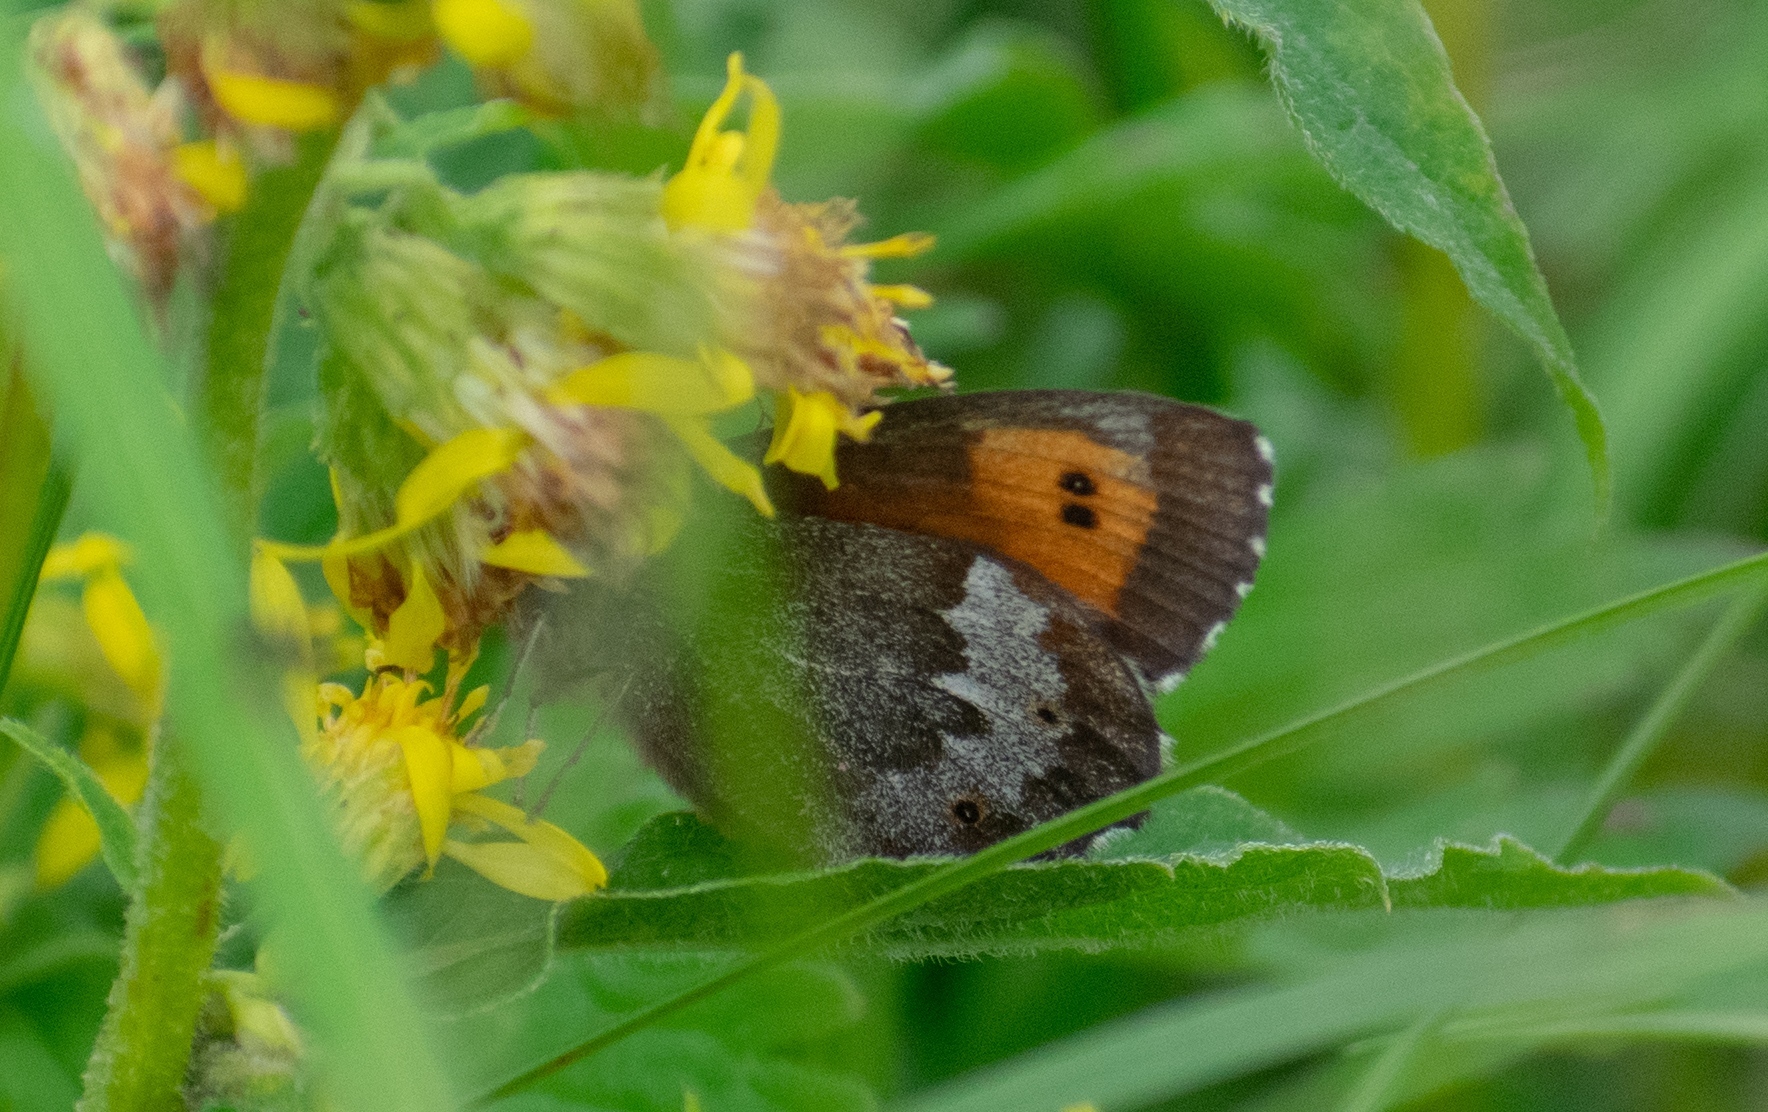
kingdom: Animalia
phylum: Arthropoda
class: Insecta
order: Lepidoptera
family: Nymphalidae
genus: Erebia
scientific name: Erebia euryale
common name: Large ringlet
